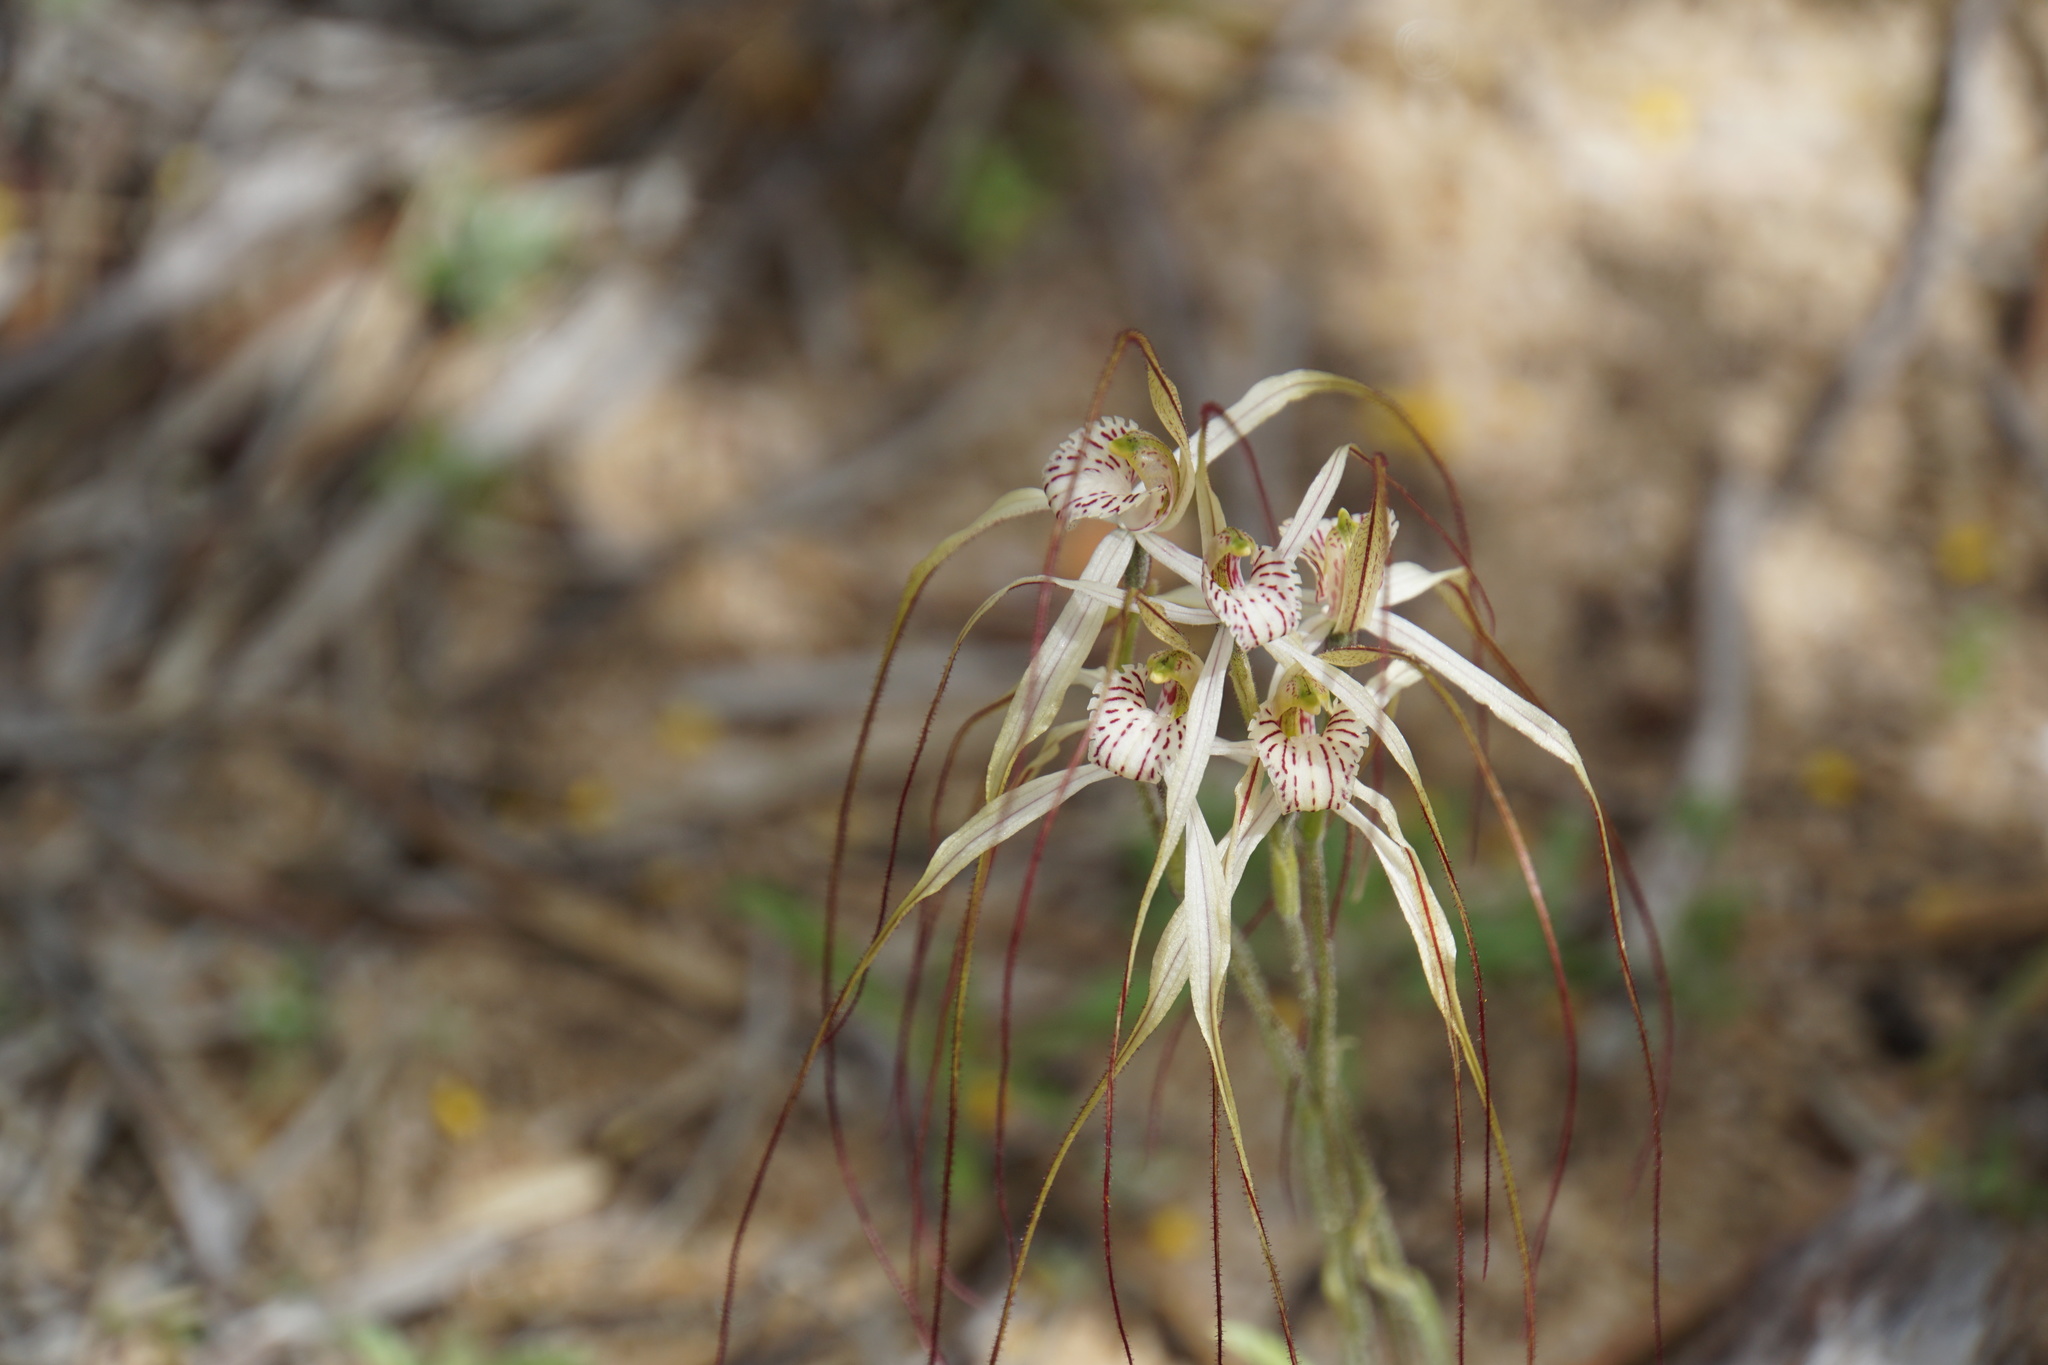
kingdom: Plantae
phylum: Tracheophyta
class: Liliopsida
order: Asparagales
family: Orchidaceae
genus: Caladenia
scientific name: Caladenia varians
